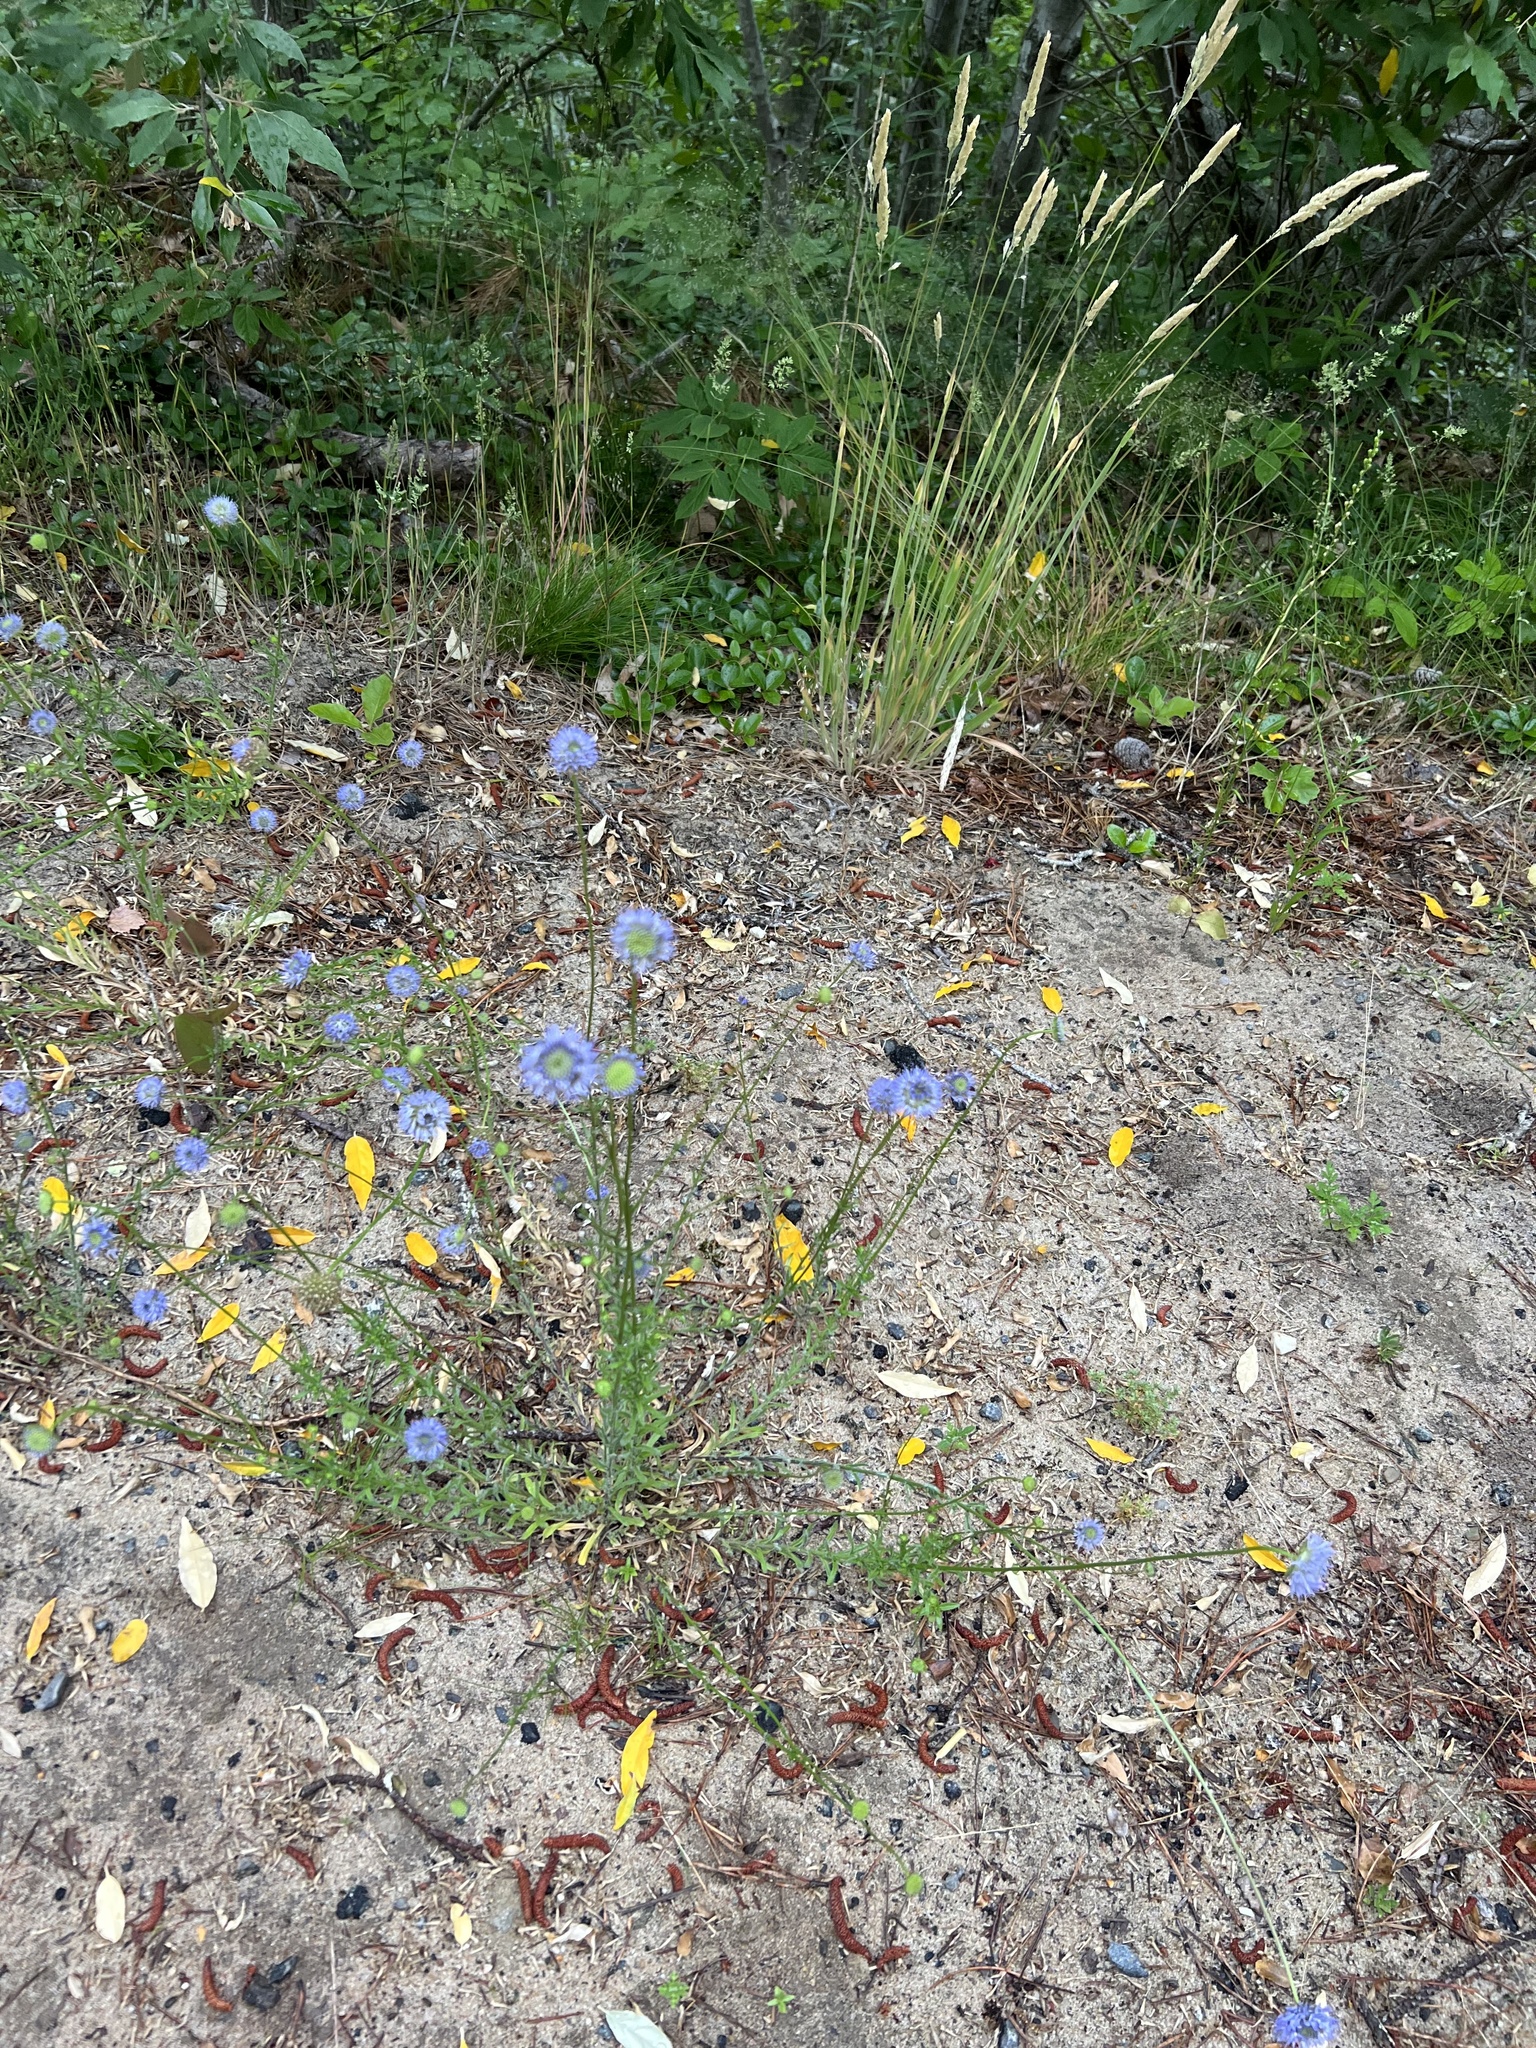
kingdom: Plantae
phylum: Tracheophyta
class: Magnoliopsida
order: Asterales
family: Campanulaceae
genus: Jasione
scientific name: Jasione montana
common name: Sheep's-bit
